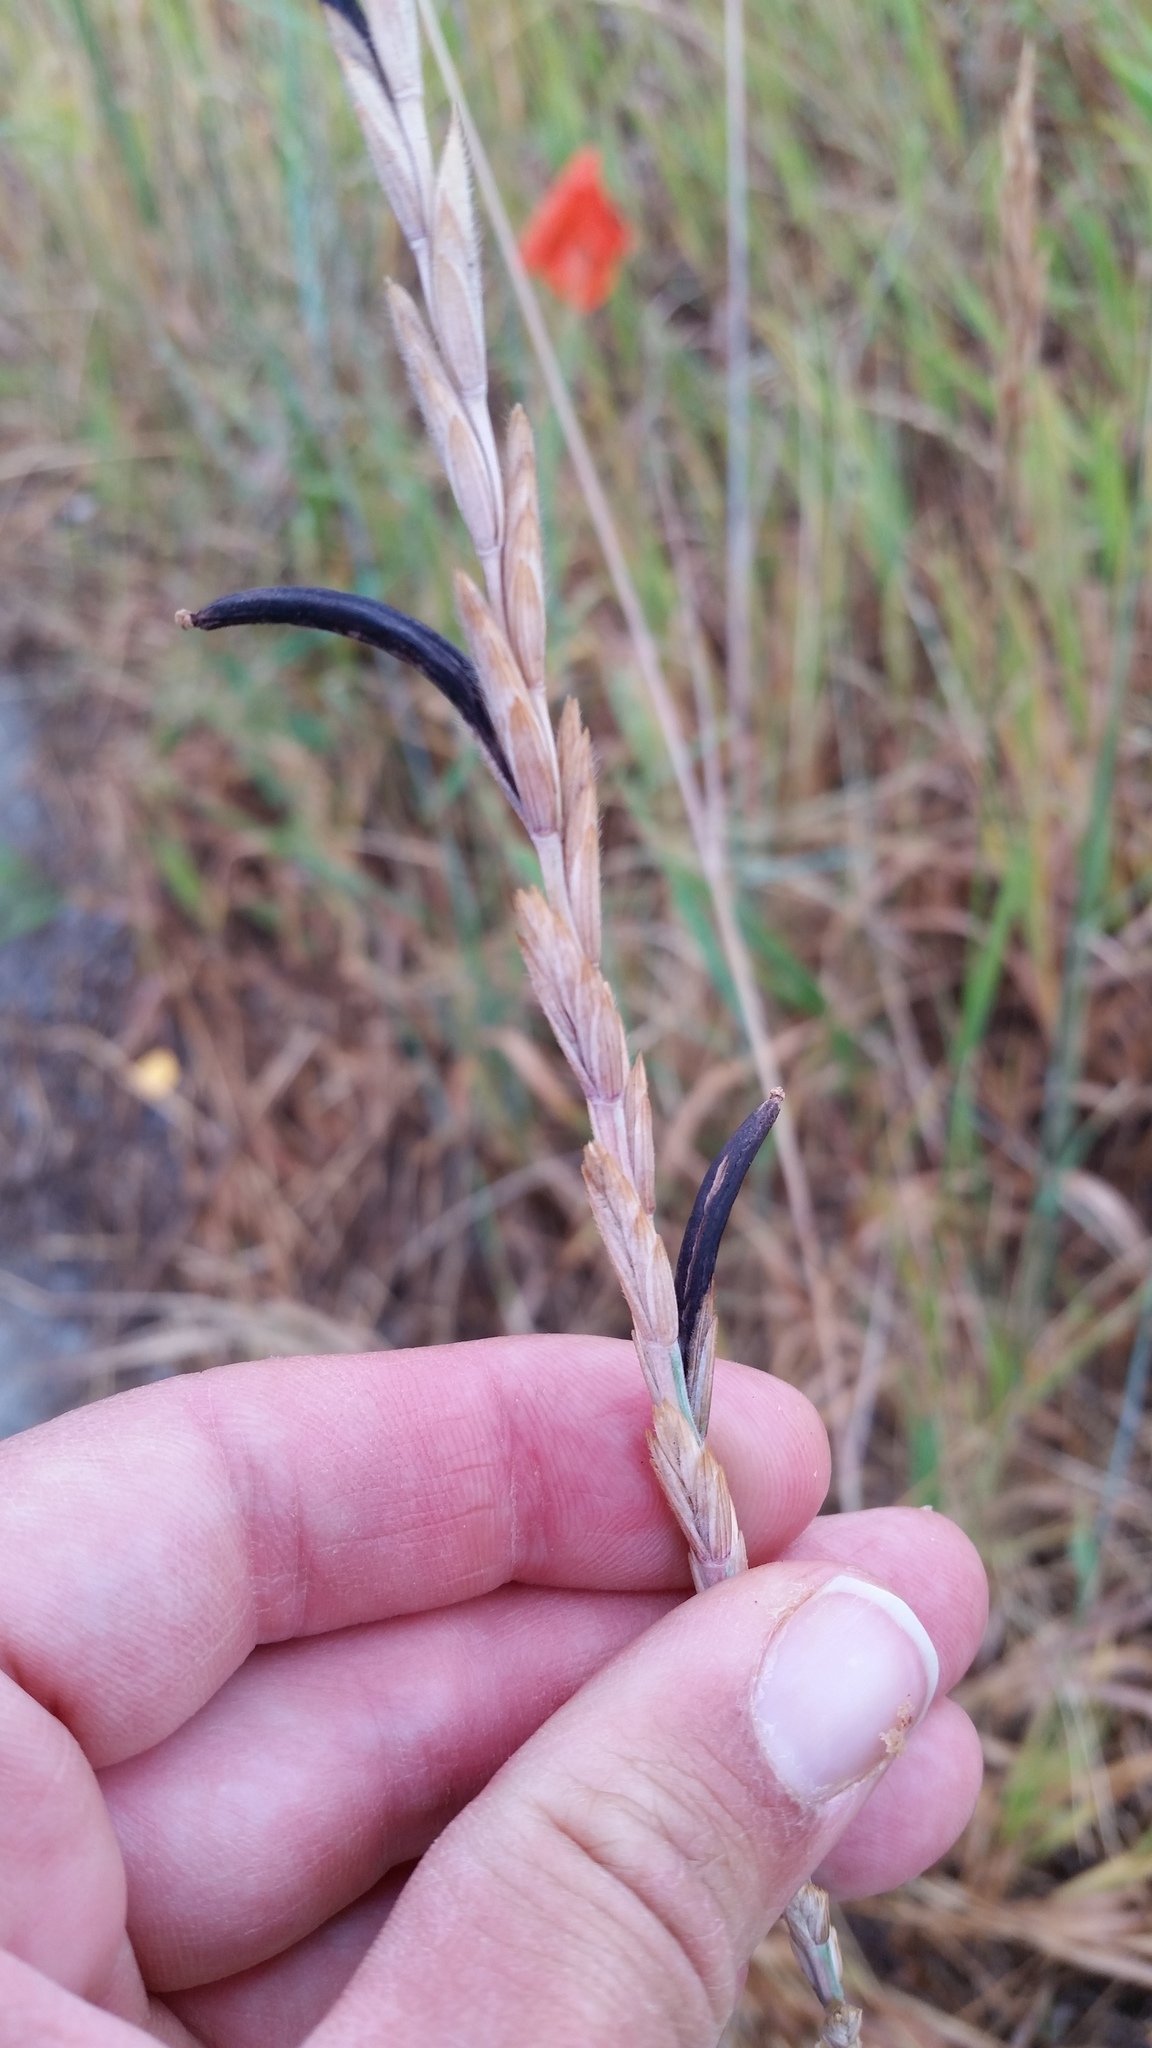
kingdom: Fungi
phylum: Ascomycota
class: Sordariomycetes
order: Hypocreales
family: Clavicipitaceae
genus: Claviceps
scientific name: Claviceps purpurea
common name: Rye ergot
